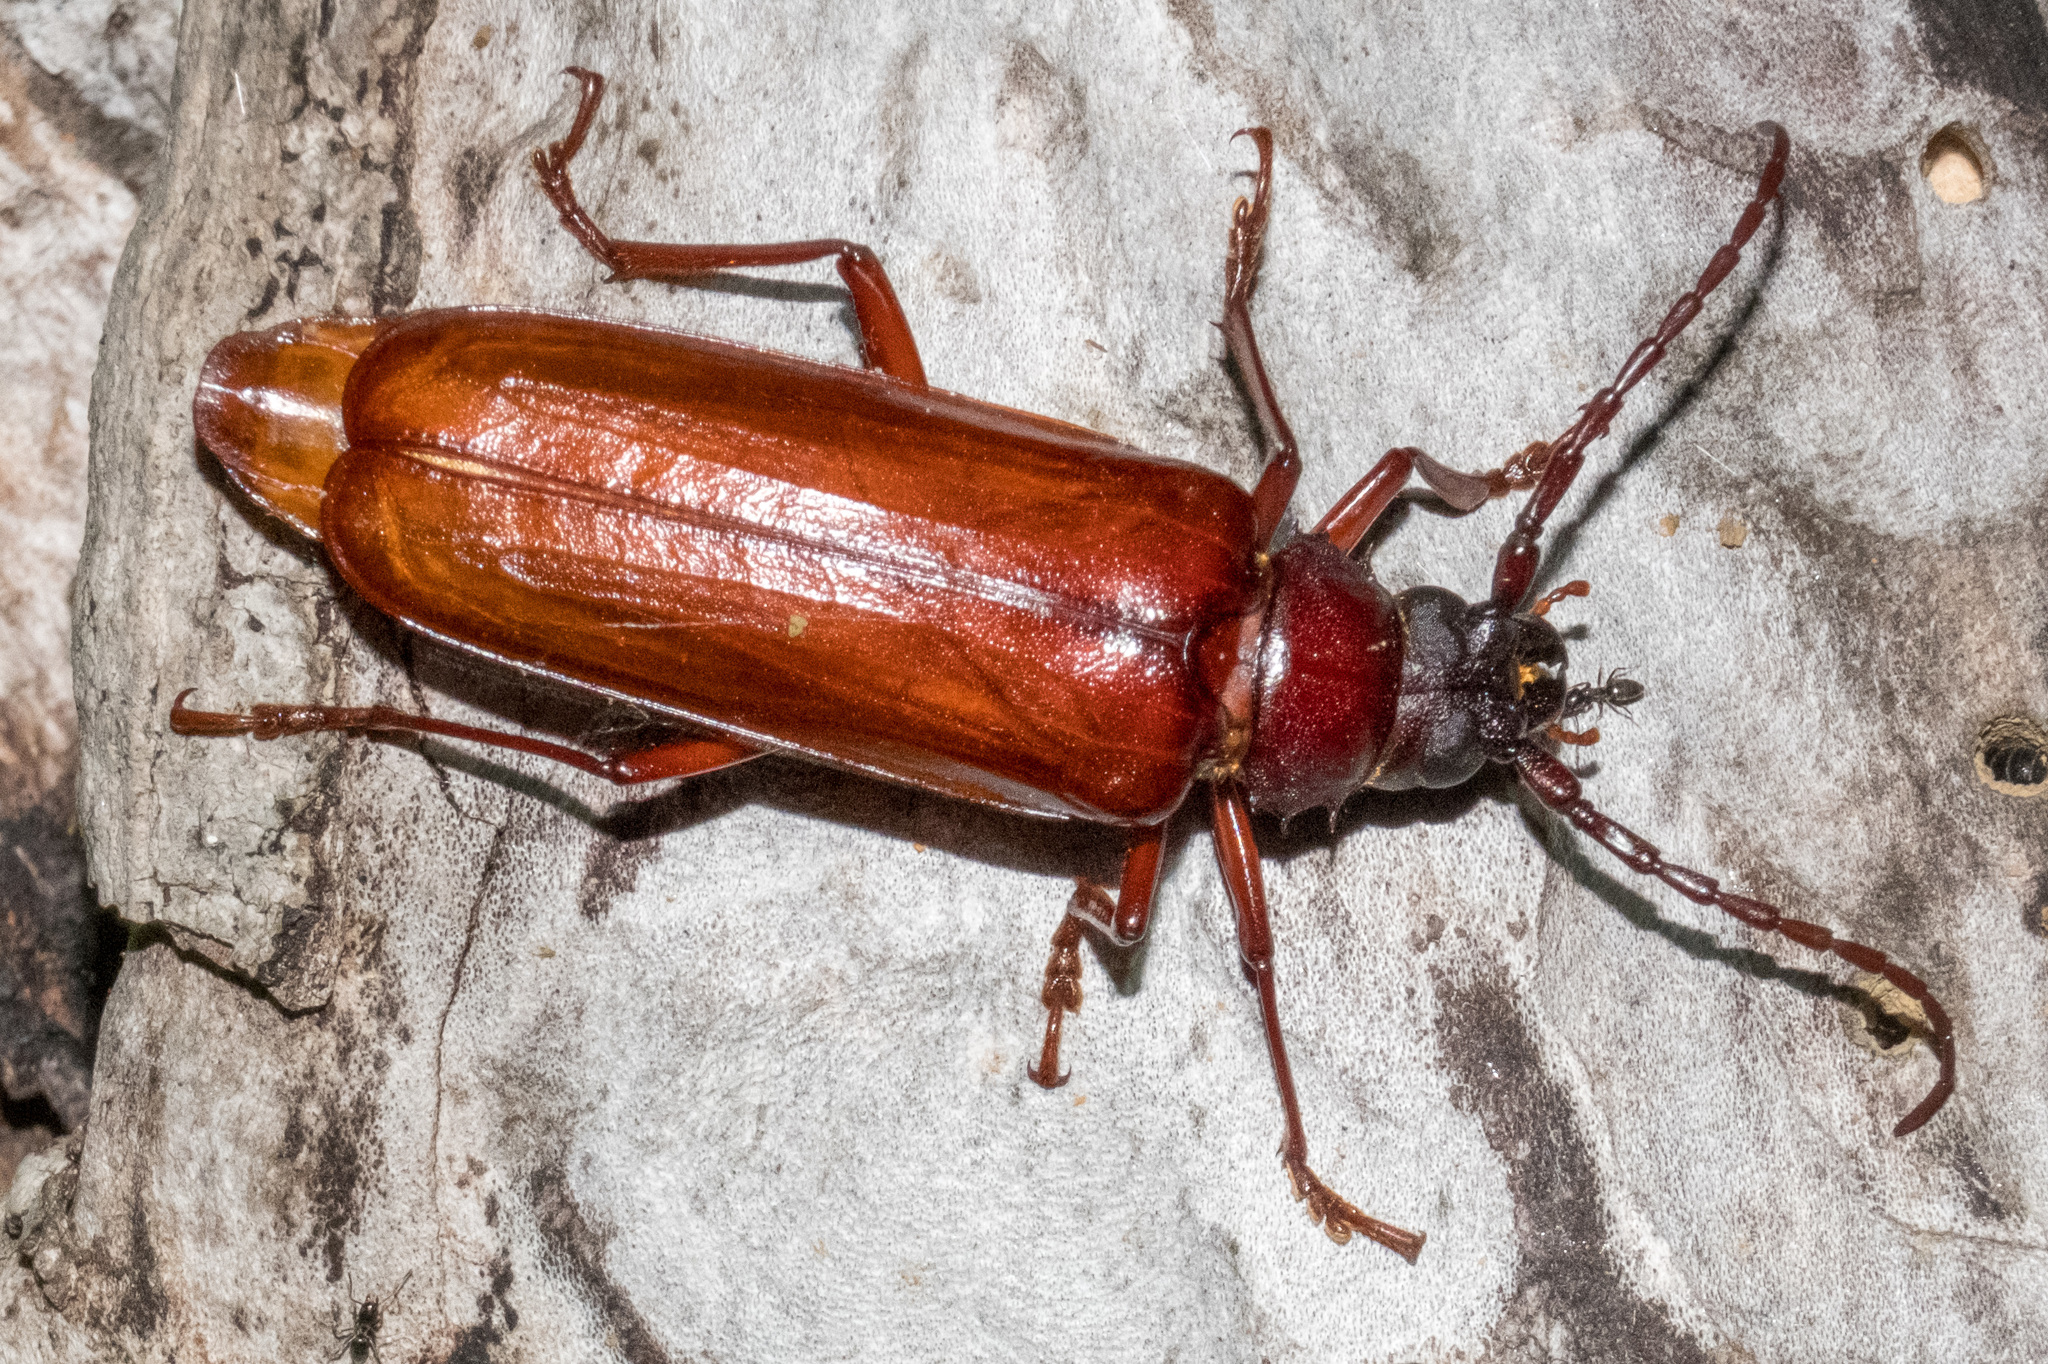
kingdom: Animalia
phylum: Arthropoda
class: Insecta
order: Coleoptera
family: Cerambycidae
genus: Orthosoma
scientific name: Orthosoma brunneum
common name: Brown prionid beetle
